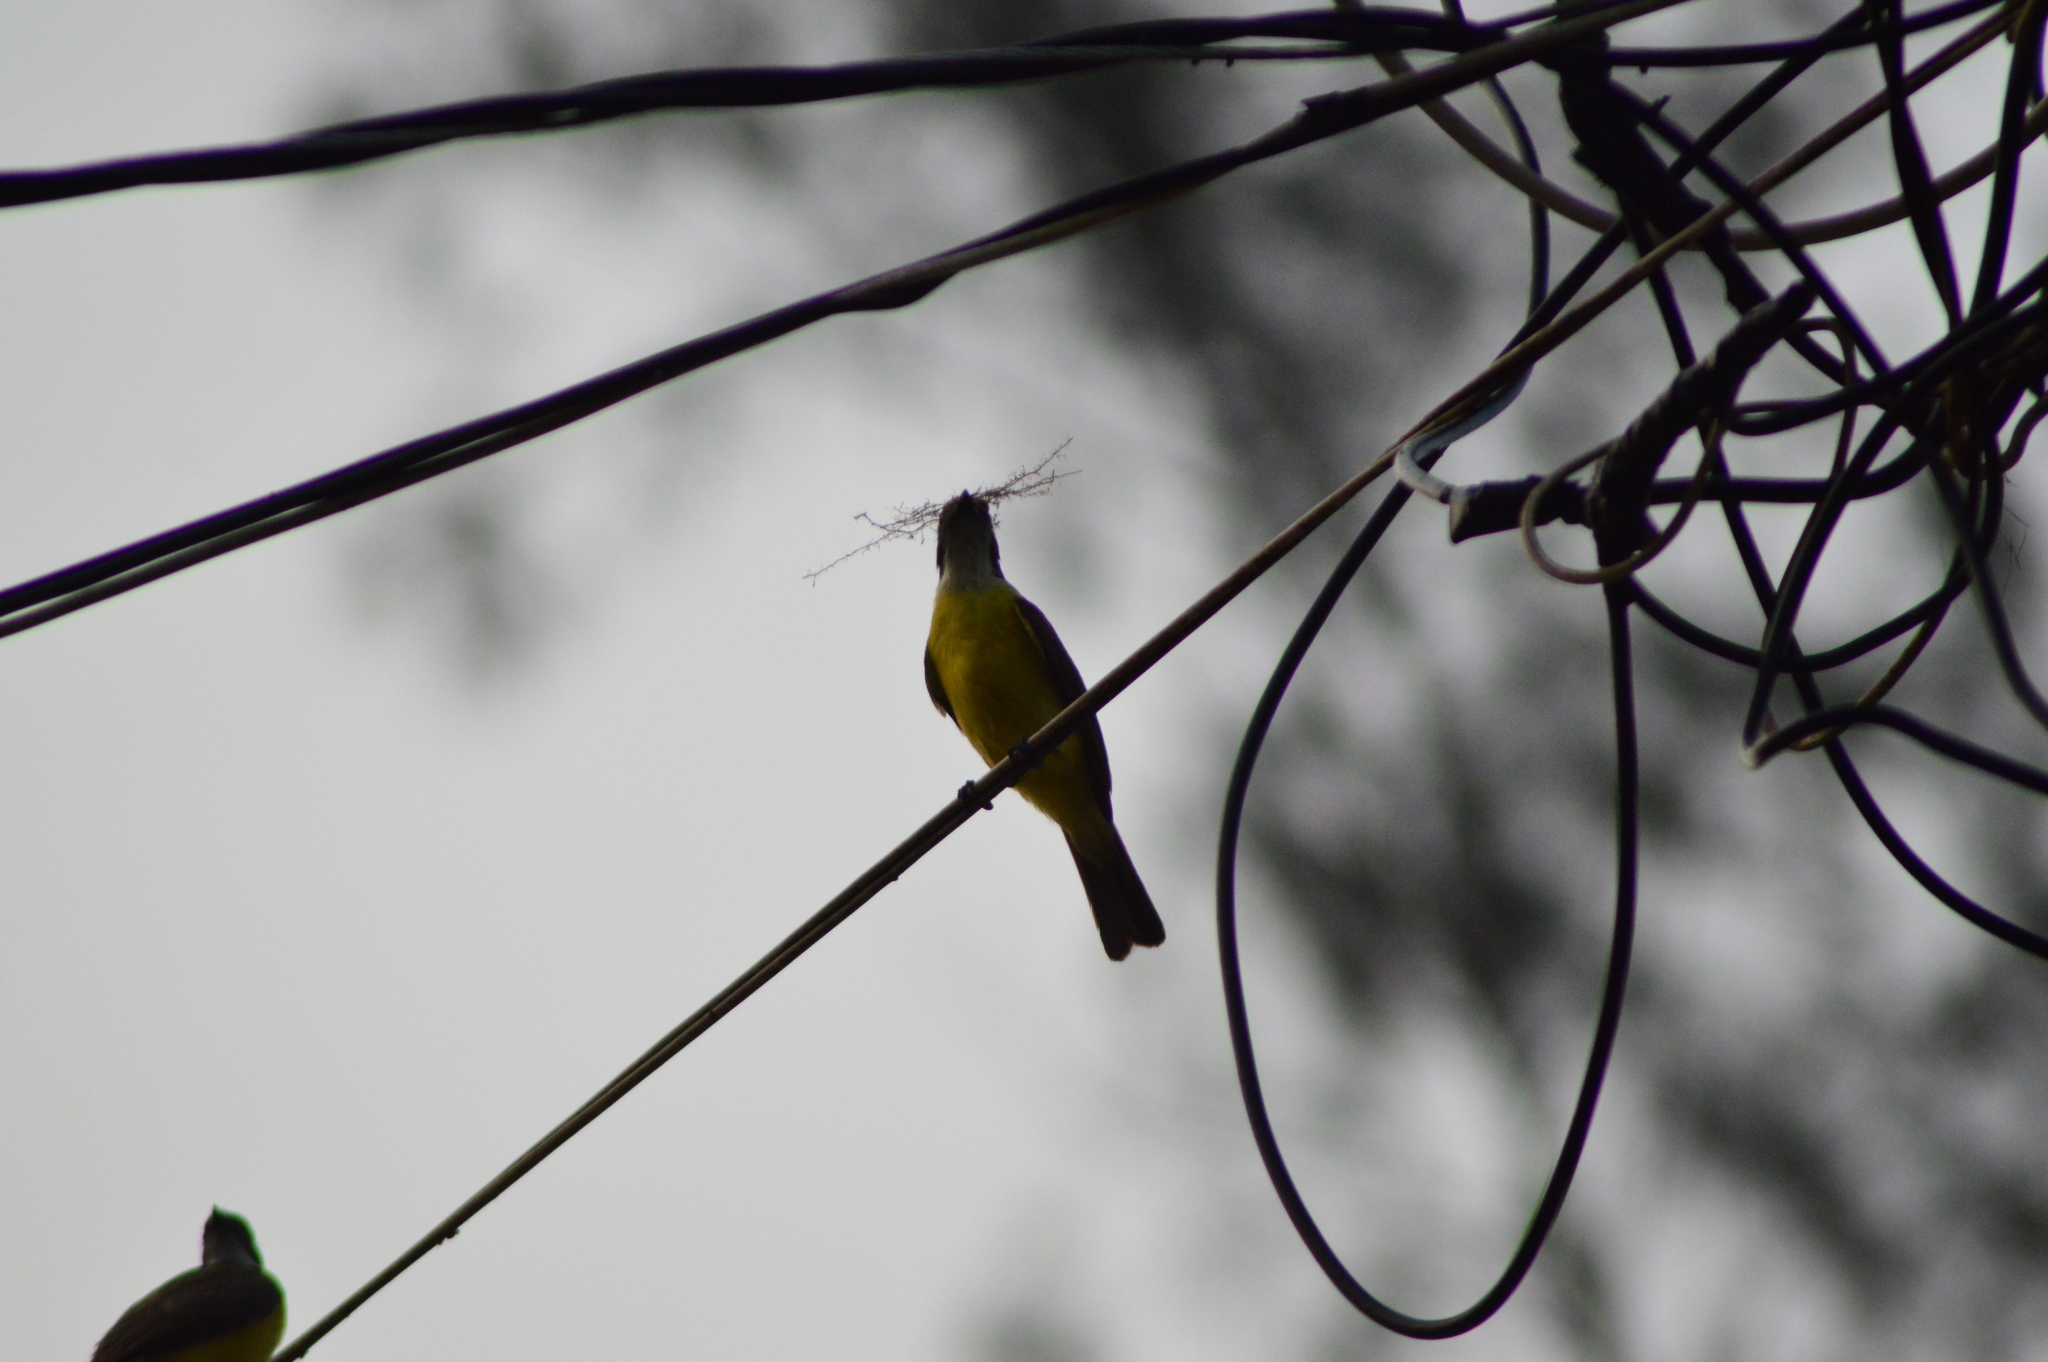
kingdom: Animalia
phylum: Chordata
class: Aves
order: Passeriformes
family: Tyrannidae
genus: Myiozetetes
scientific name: Myiozetetes similis
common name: Social flycatcher
